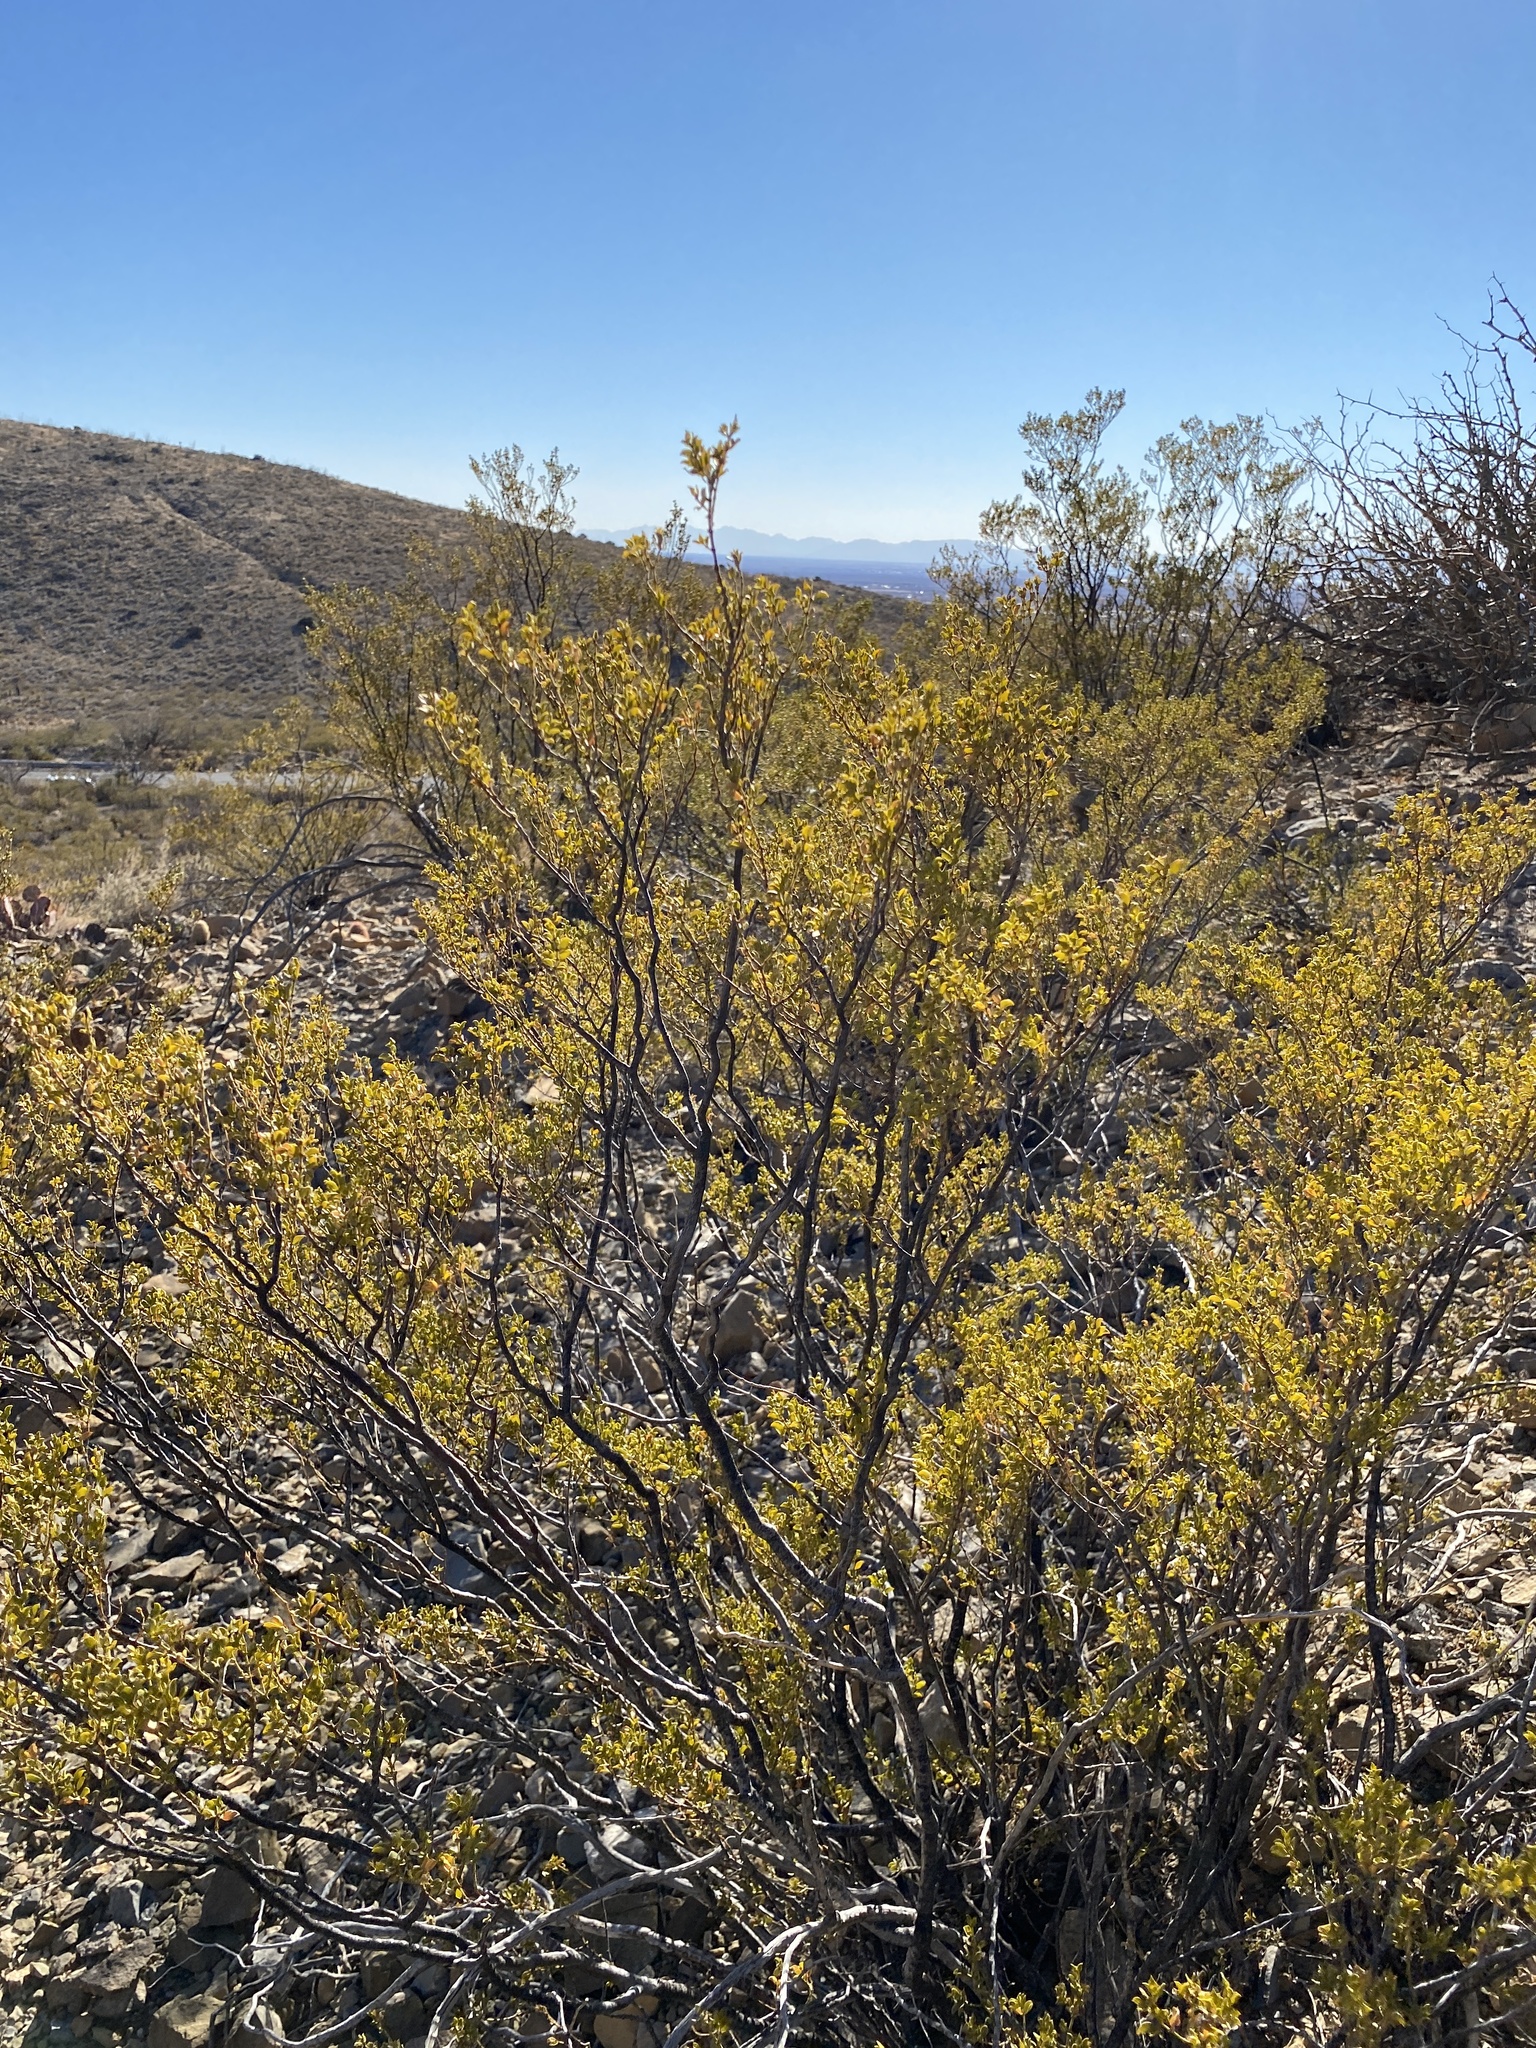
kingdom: Plantae
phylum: Tracheophyta
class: Magnoliopsida
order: Zygophyllales
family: Zygophyllaceae
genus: Larrea
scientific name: Larrea tridentata
